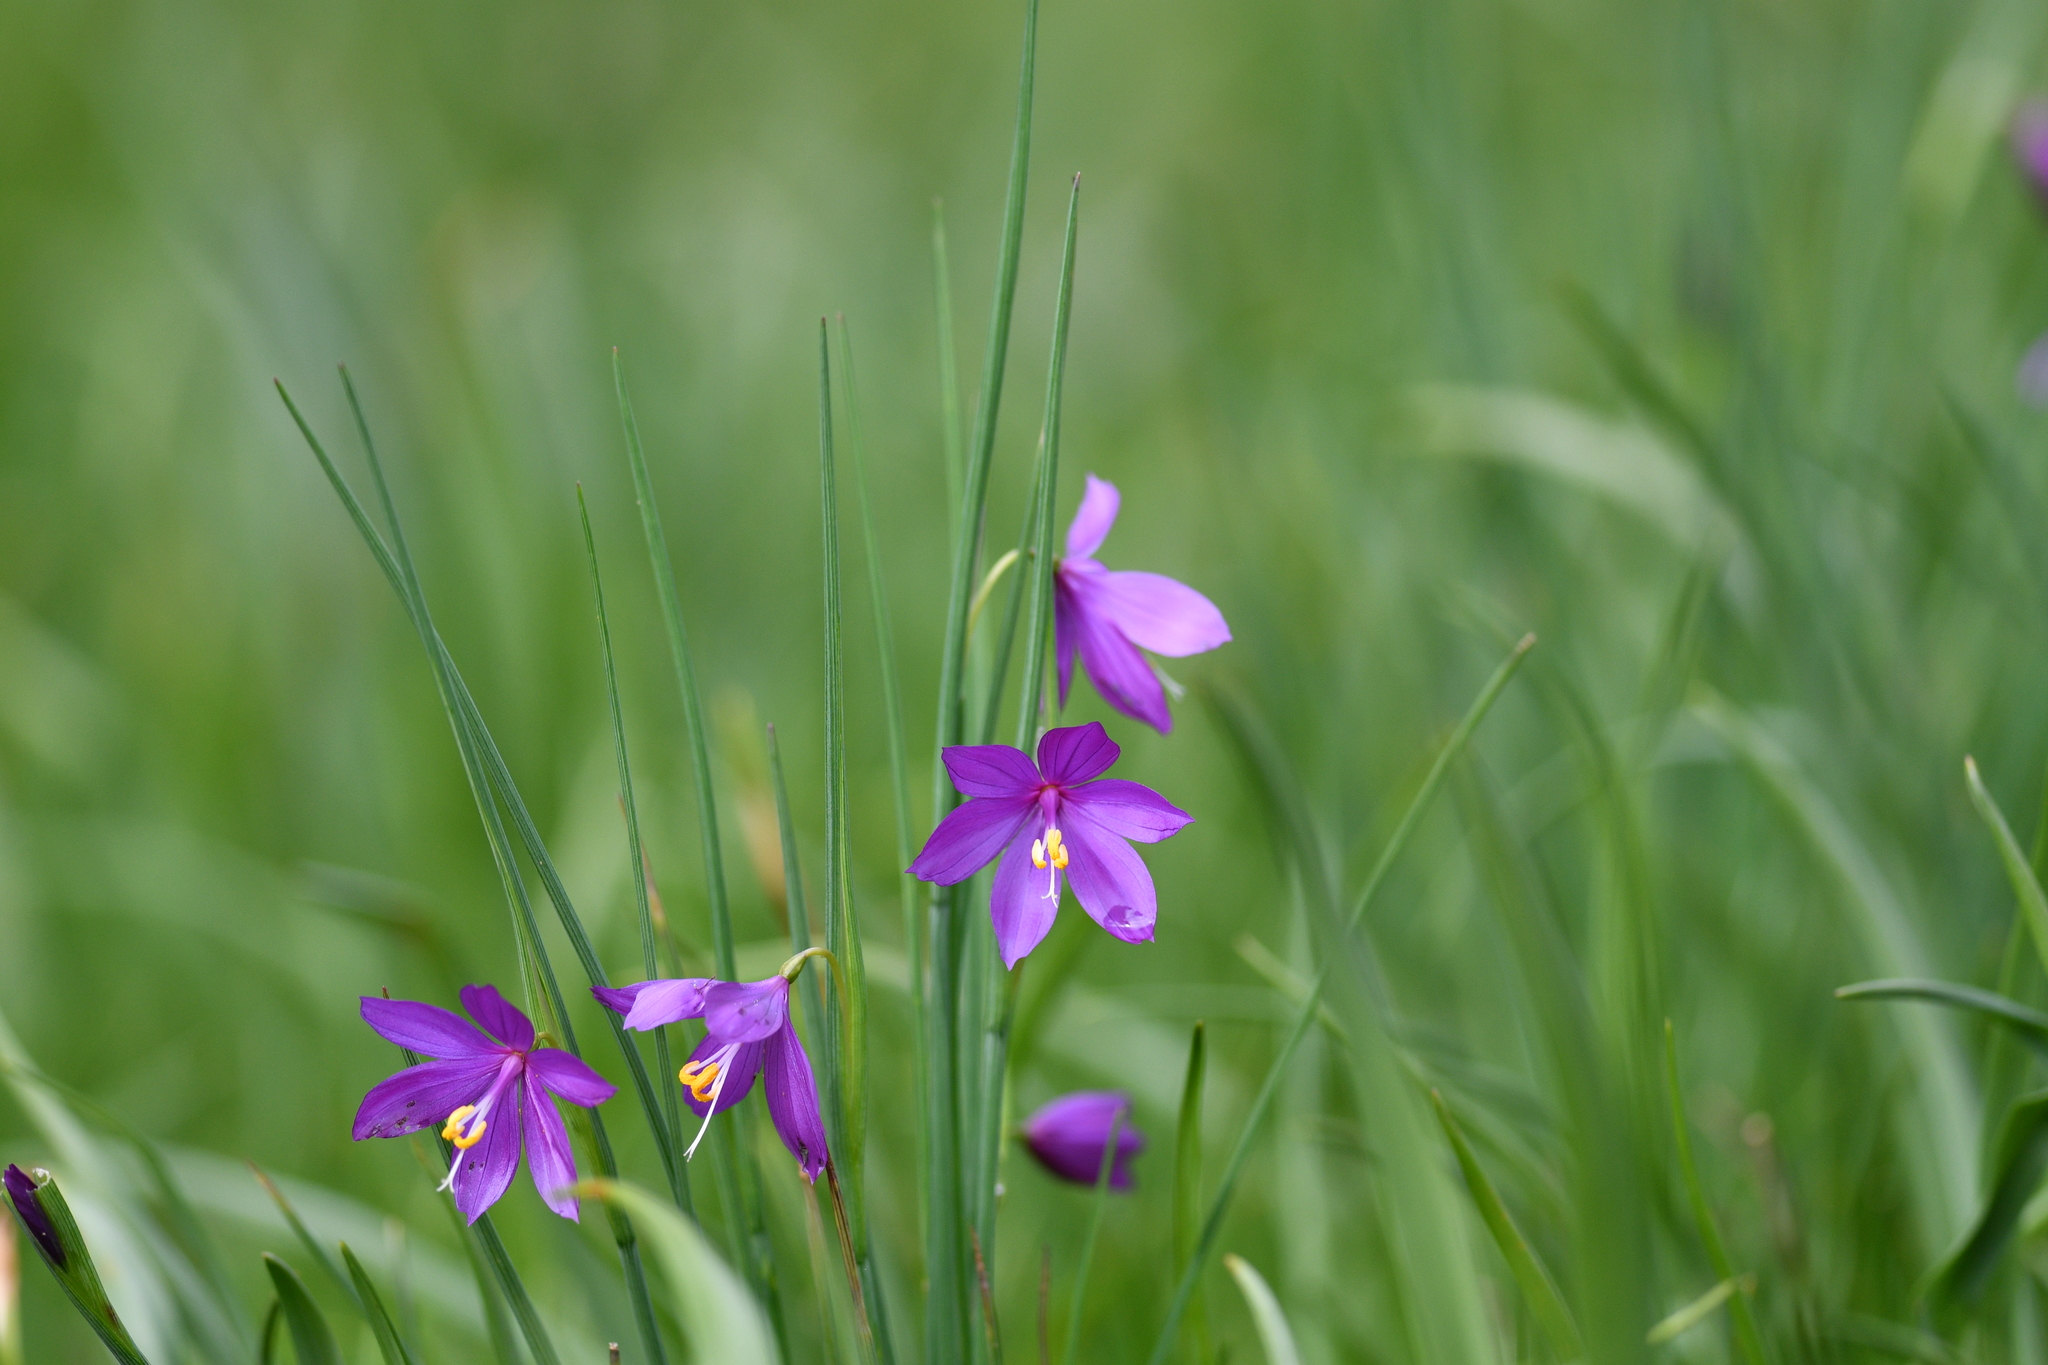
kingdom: Plantae
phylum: Tracheophyta
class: Liliopsida
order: Asparagales
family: Iridaceae
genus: Olsynium
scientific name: Olsynium douglasii
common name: Douglas' grasswidow
